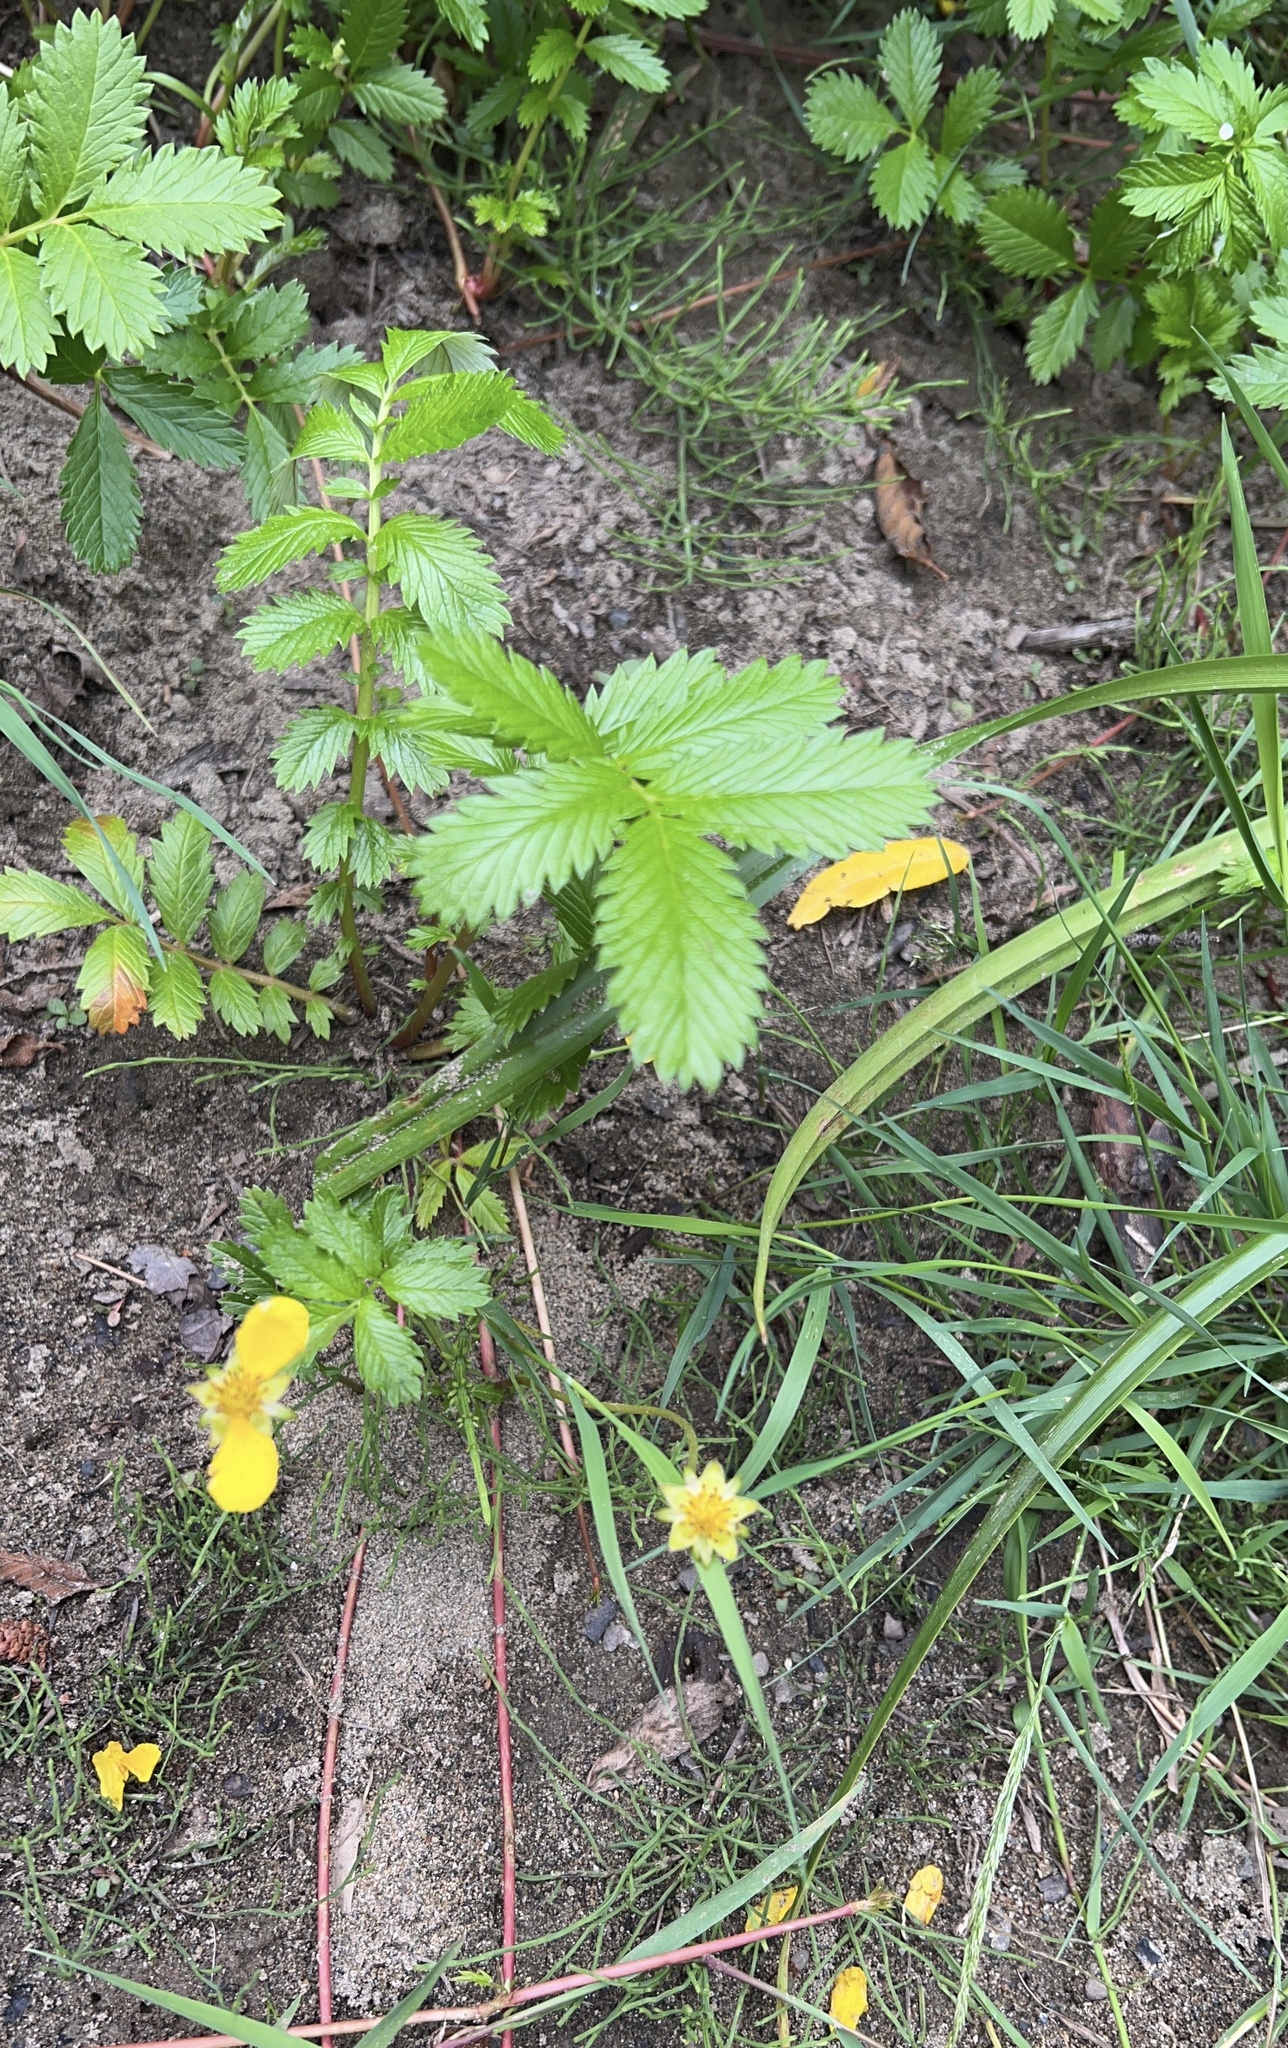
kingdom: Plantae
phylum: Tracheophyta
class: Magnoliopsida
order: Rosales
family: Rosaceae
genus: Argentina
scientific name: Argentina anserina
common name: Common silverweed
